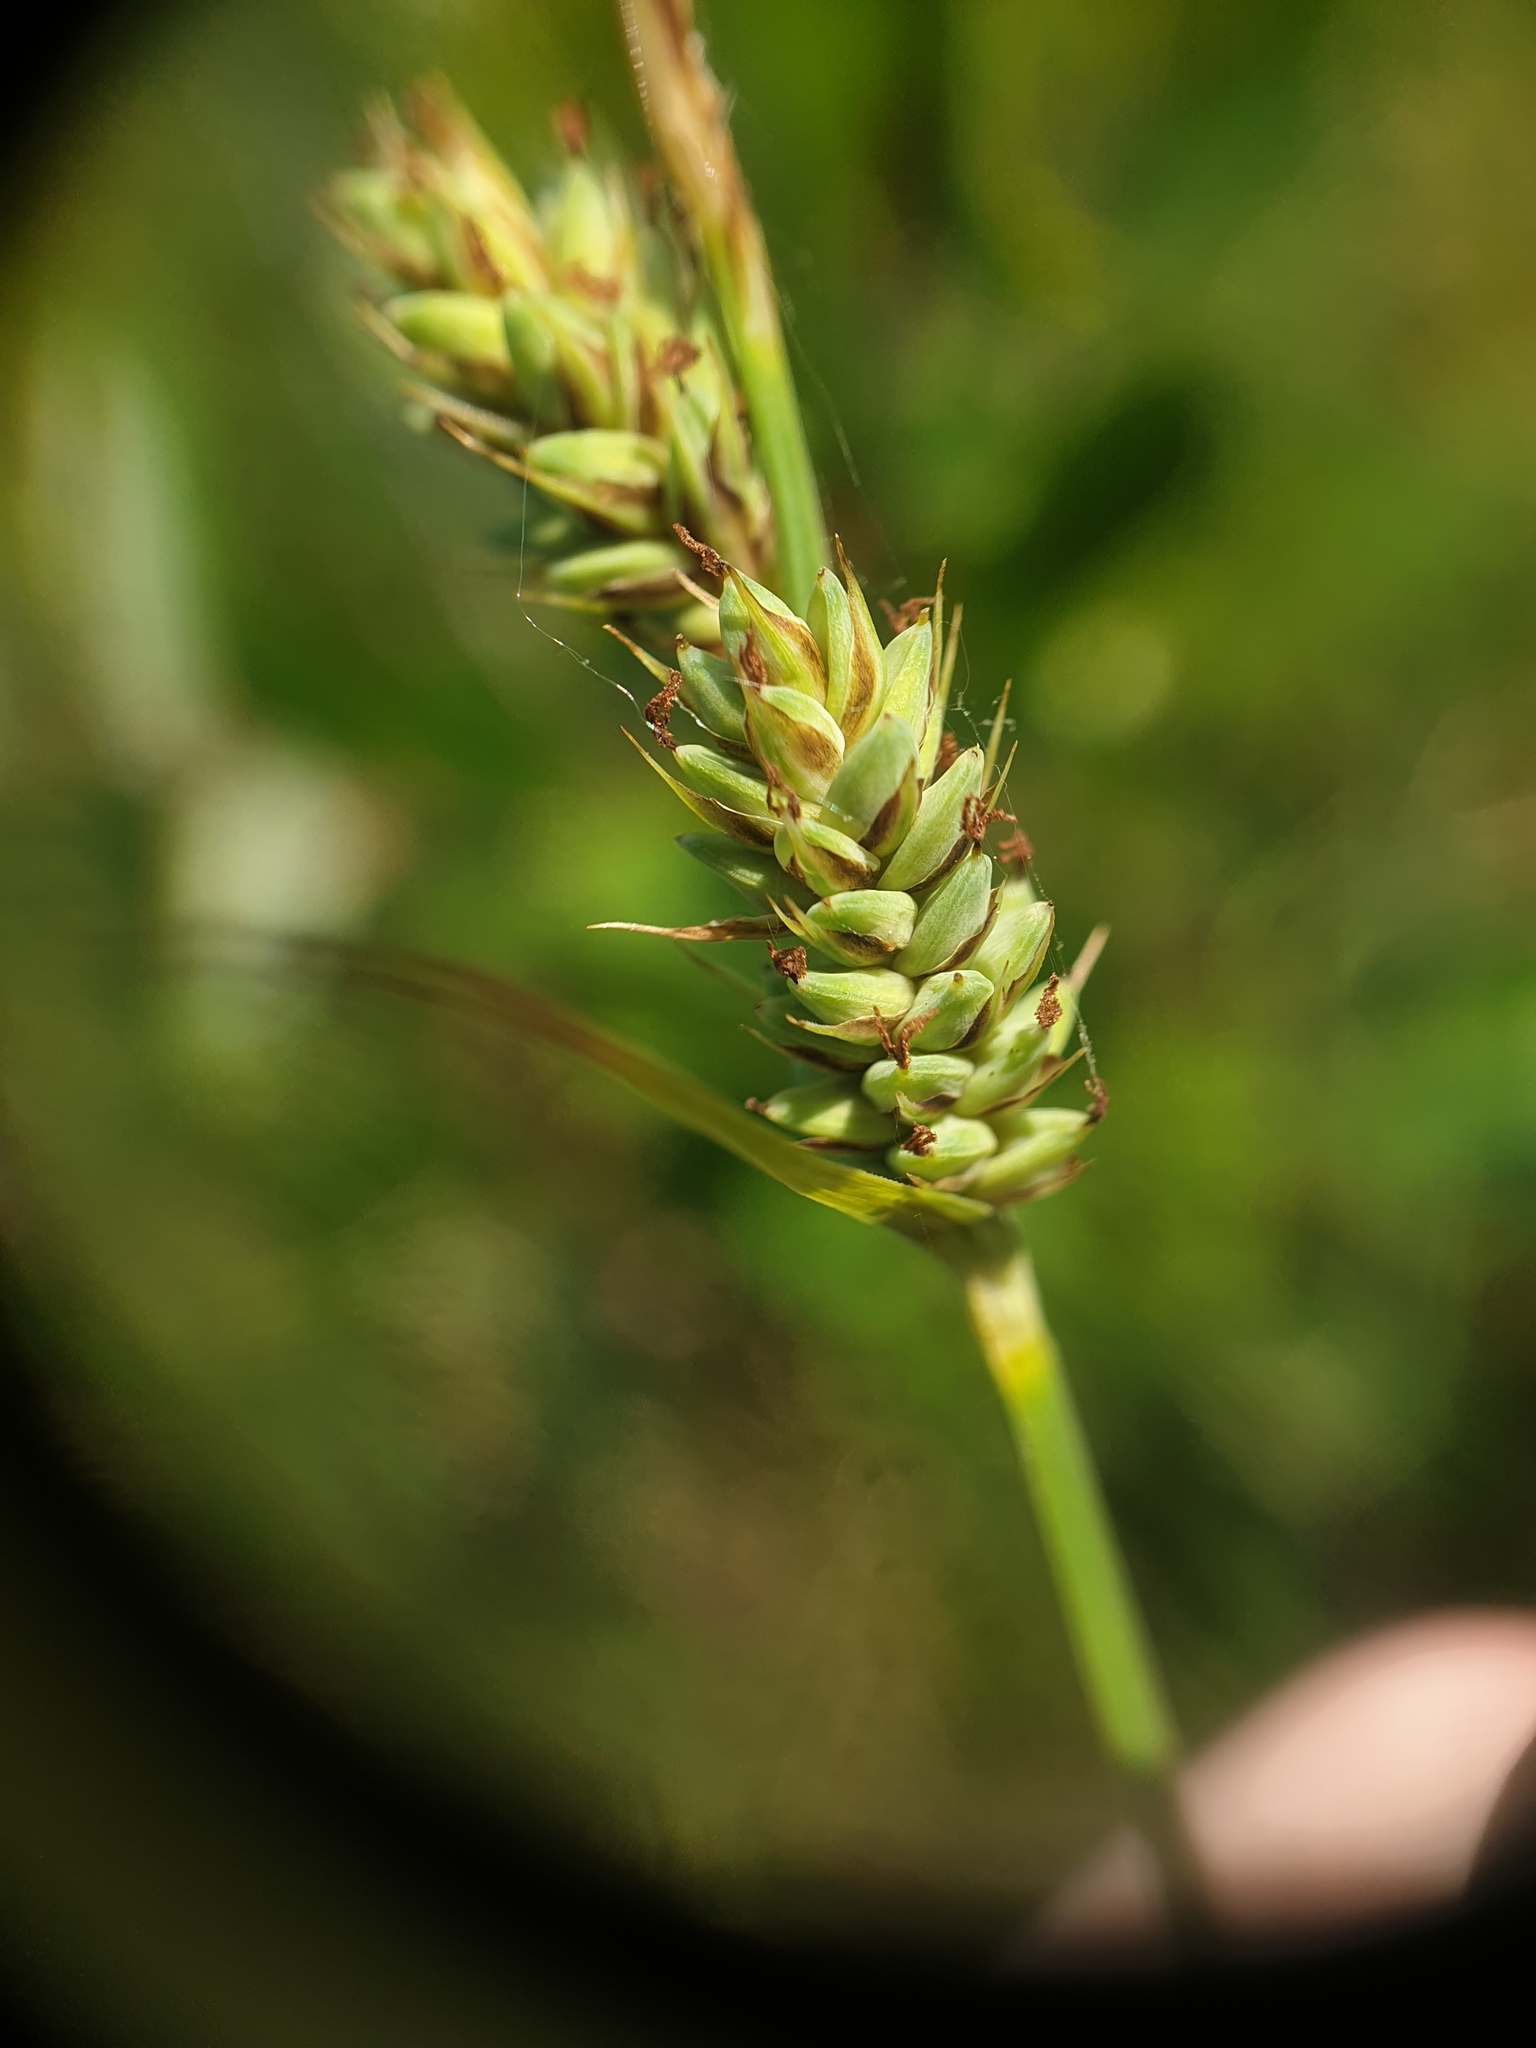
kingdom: Plantae
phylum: Tracheophyta
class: Liliopsida
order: Poales
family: Cyperaceae
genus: Carex
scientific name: Carex buxbaumii
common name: Club sedge
